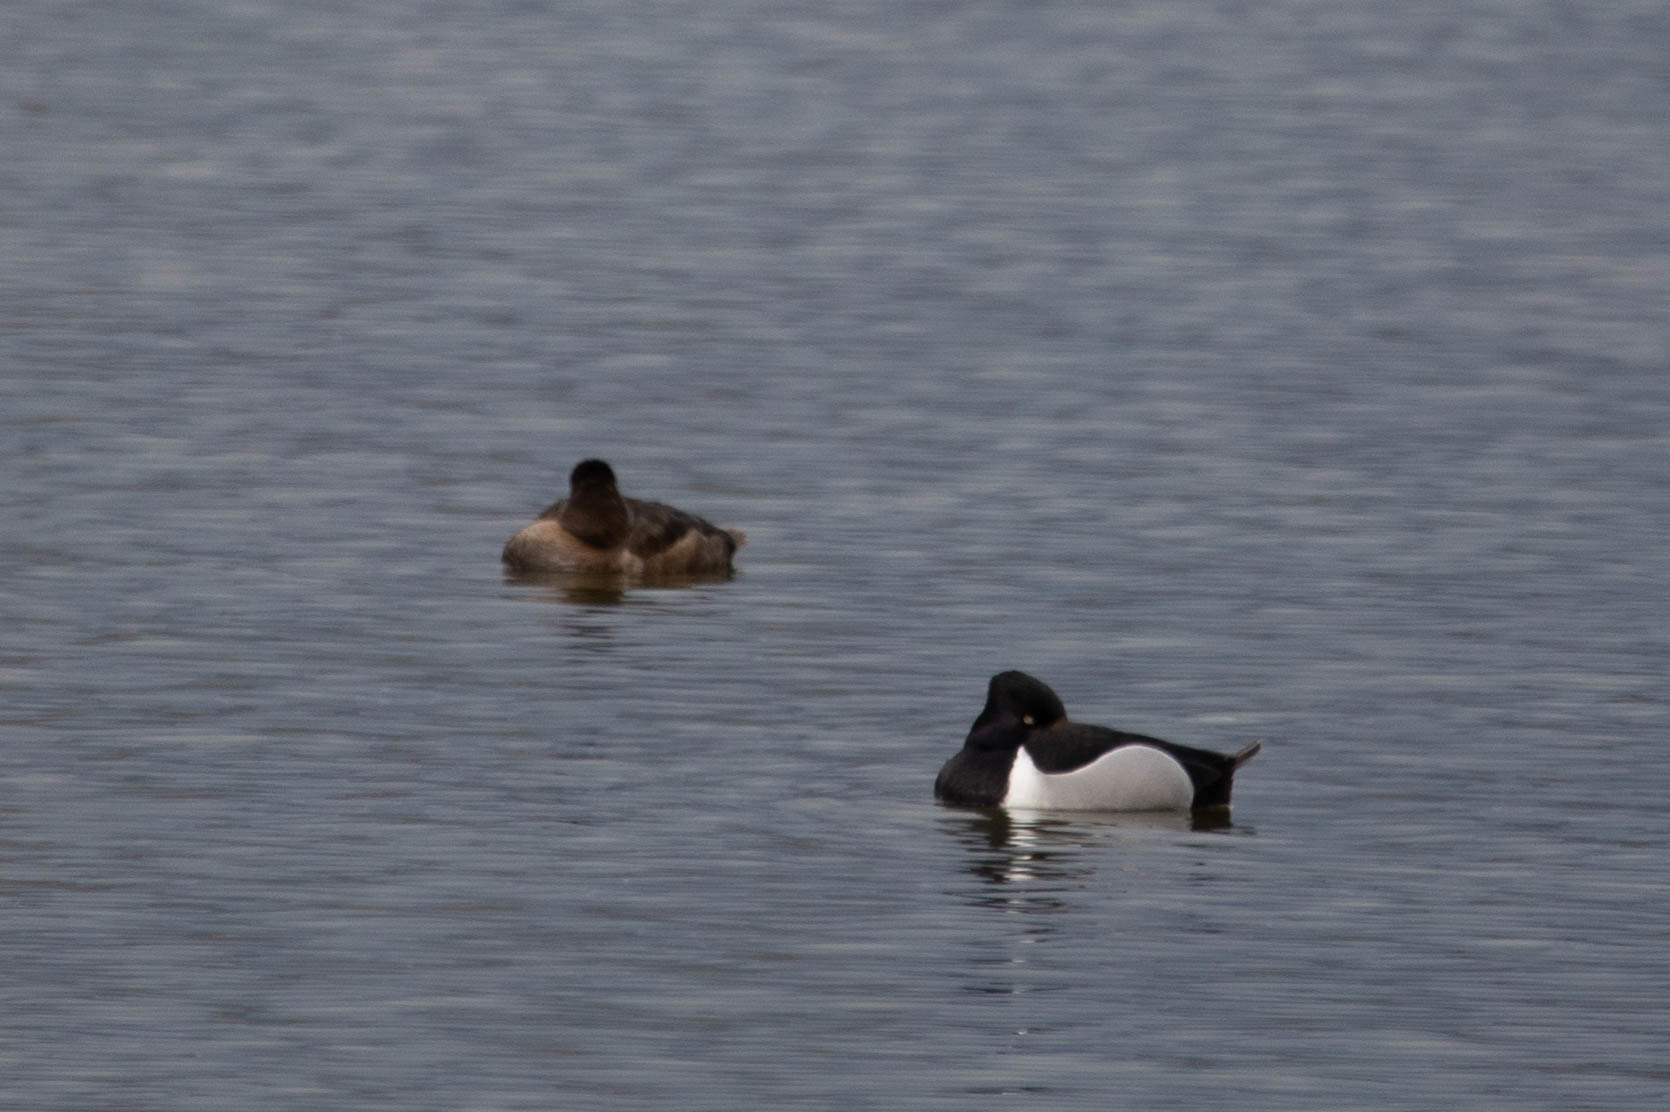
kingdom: Animalia
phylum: Chordata
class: Aves
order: Anseriformes
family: Anatidae
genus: Aythya
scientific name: Aythya collaris
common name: Ring-necked duck
